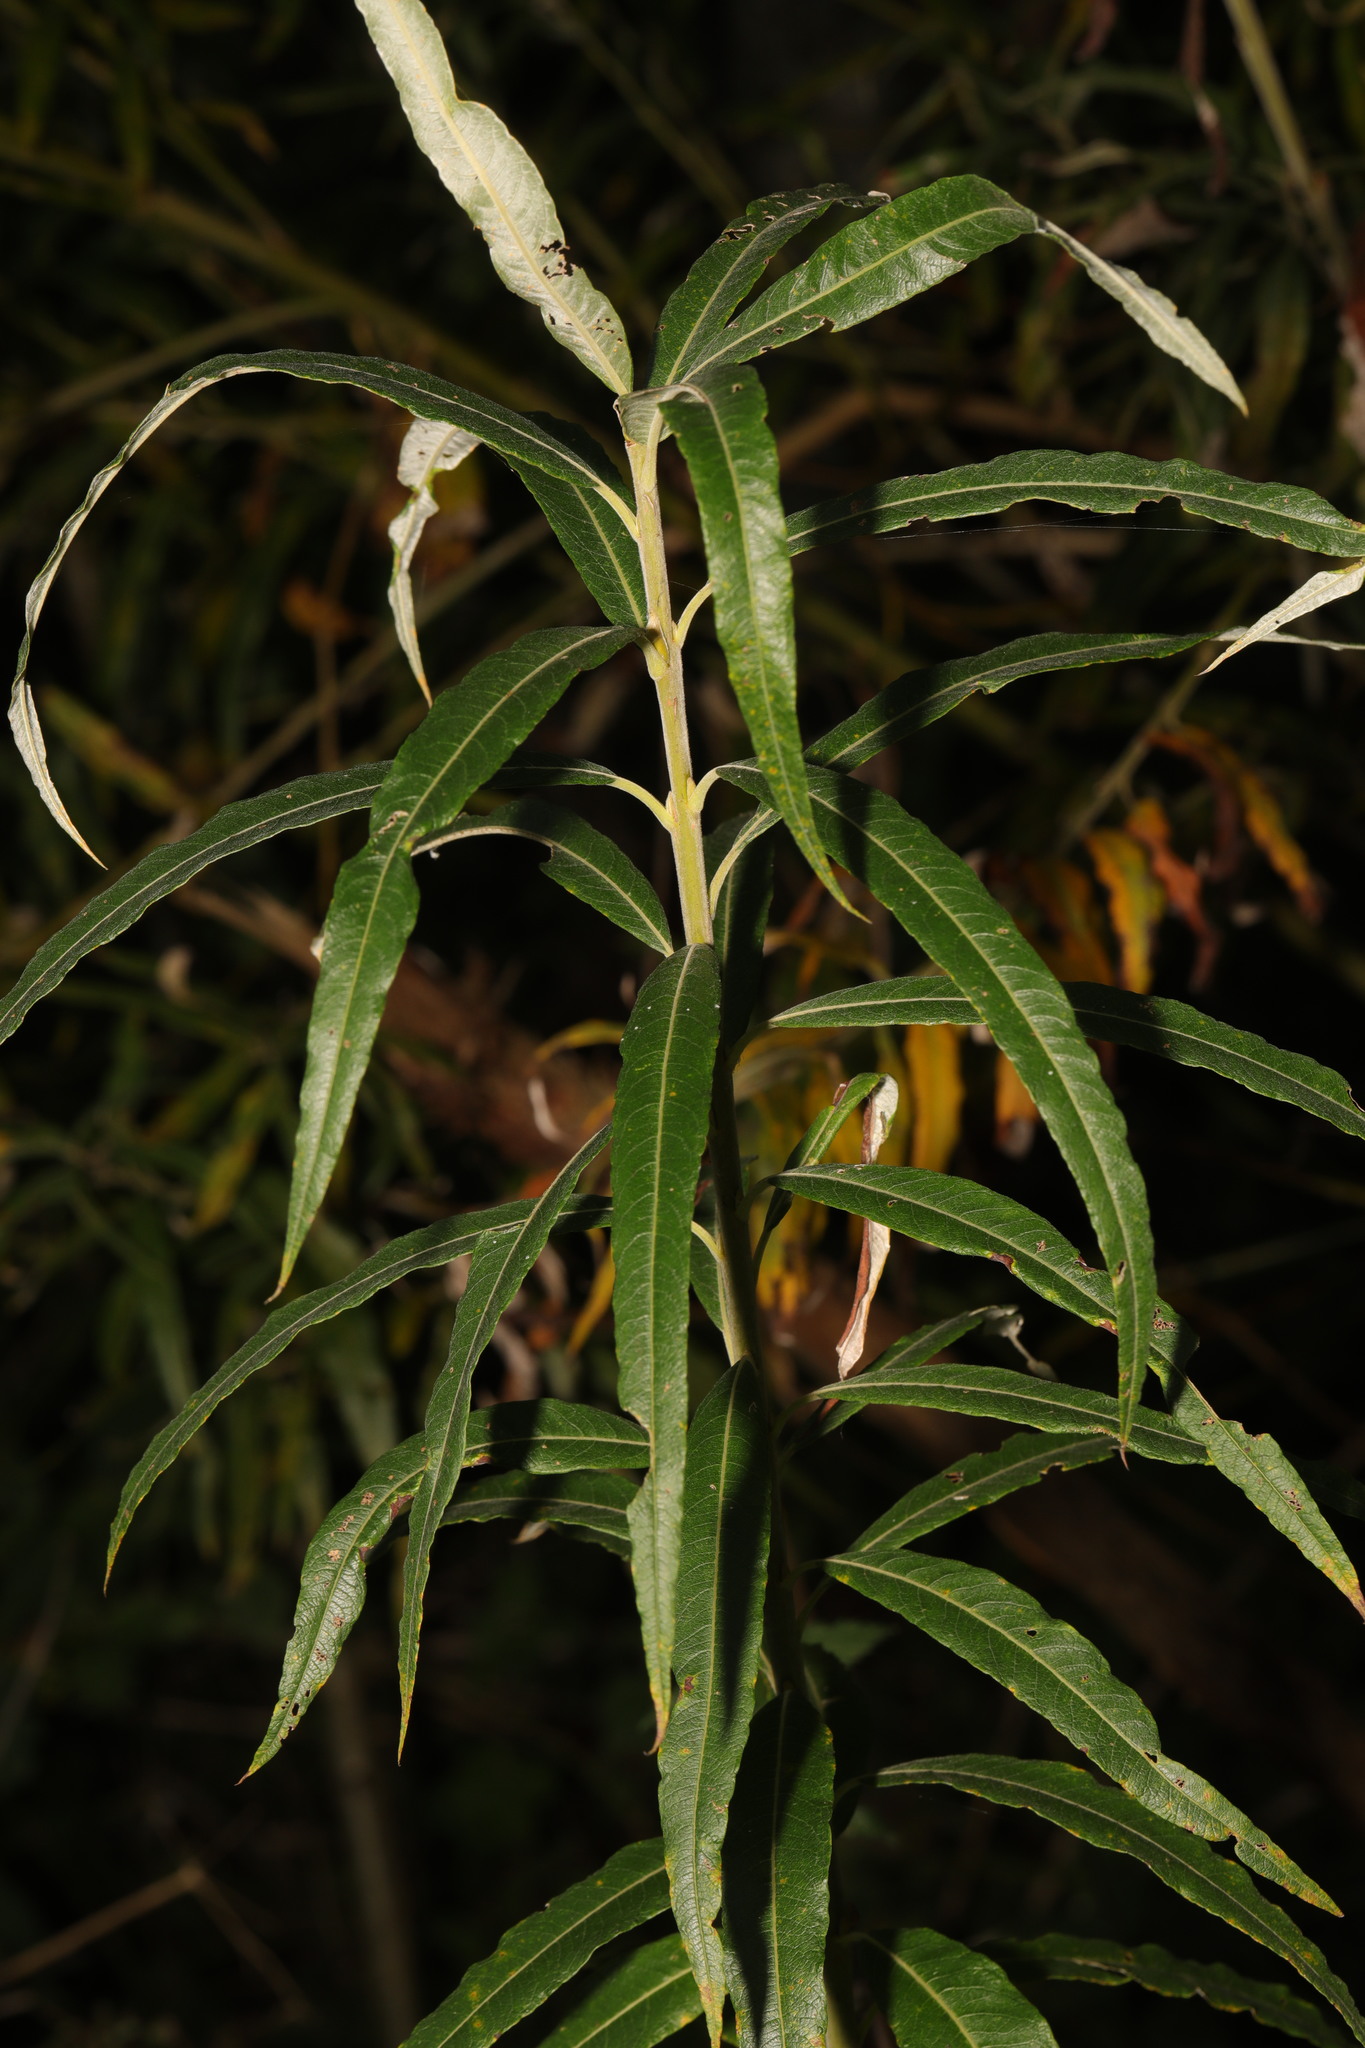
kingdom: Plantae
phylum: Tracheophyta
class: Magnoliopsida
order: Malpighiales
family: Salicaceae
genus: Salix
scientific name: Salix viminalis
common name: Osier
